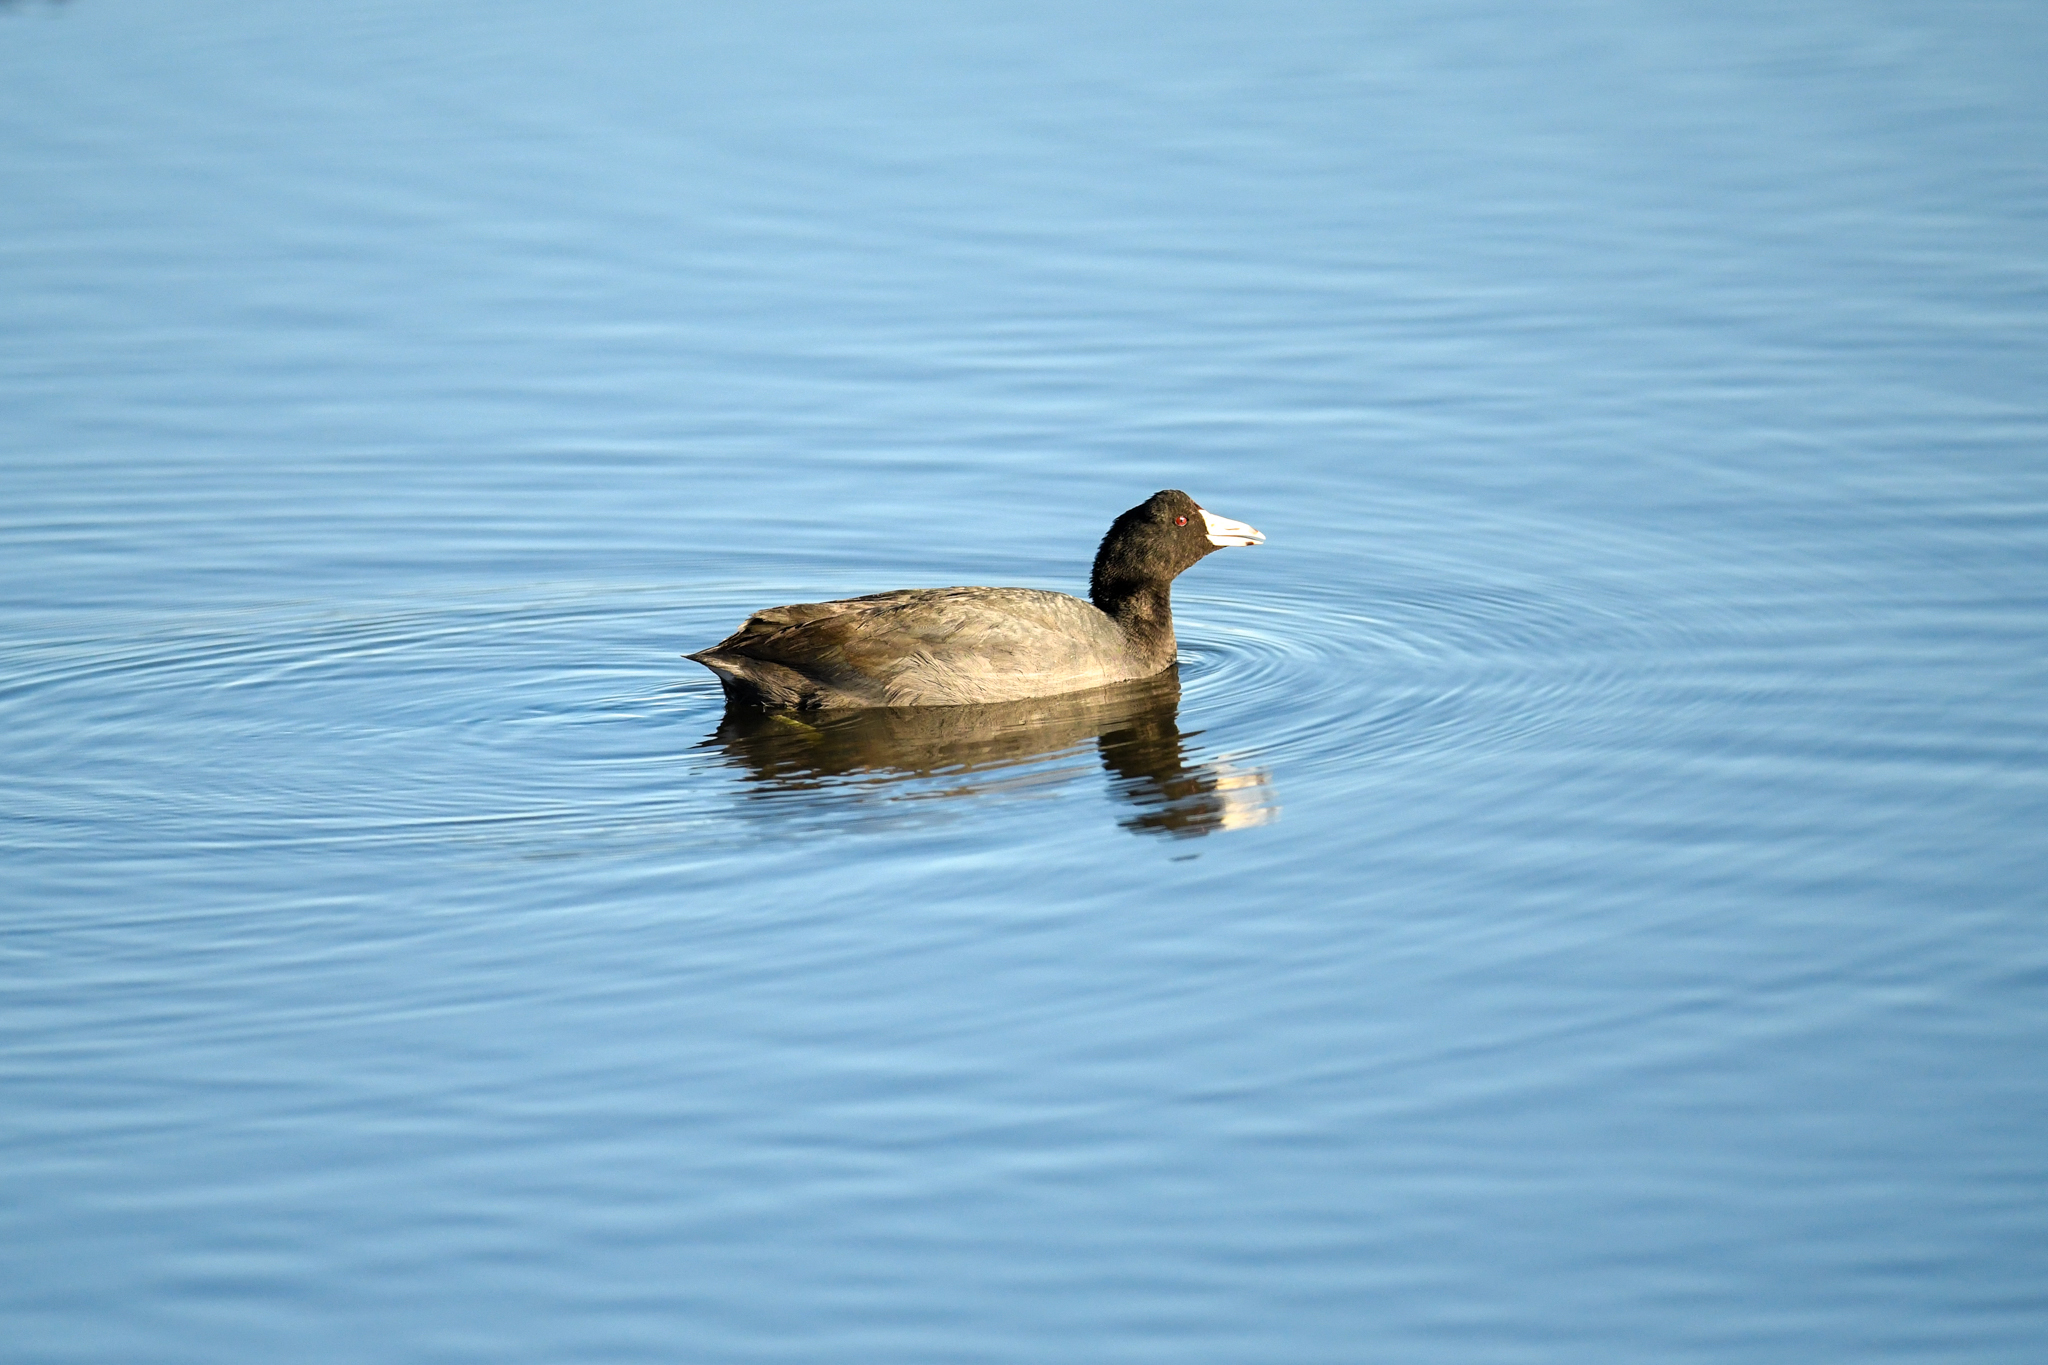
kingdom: Animalia
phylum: Chordata
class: Aves
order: Gruiformes
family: Rallidae
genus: Fulica
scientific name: Fulica americana
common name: American coot
